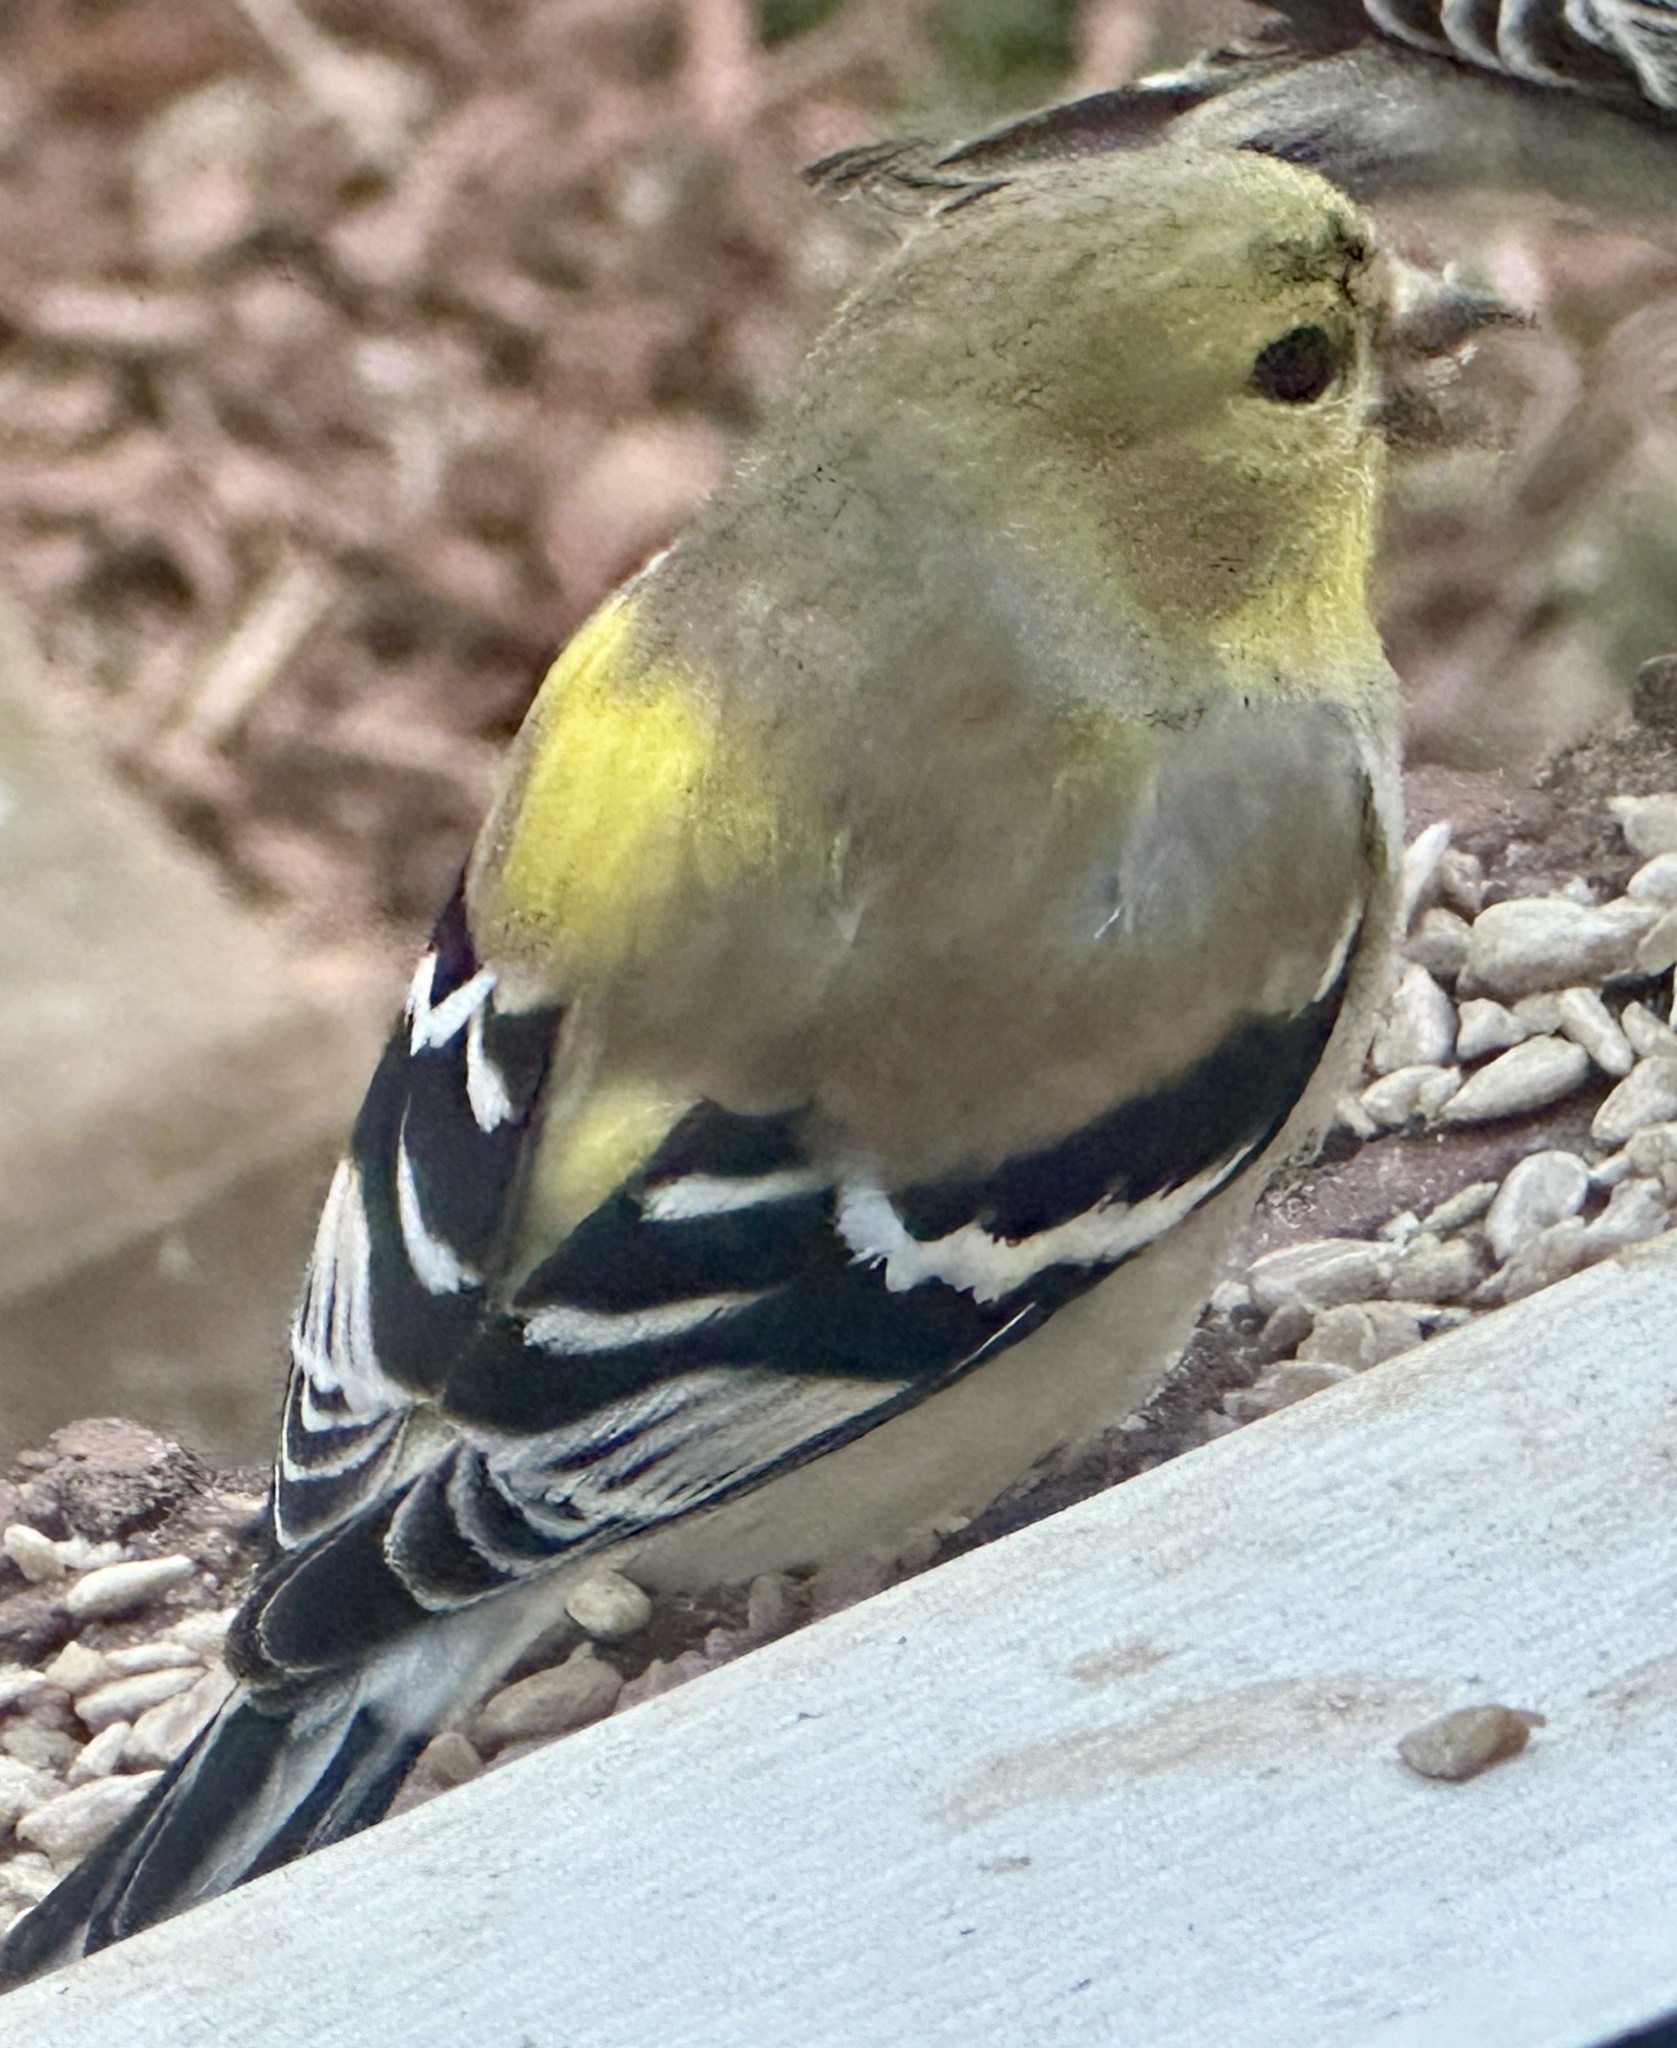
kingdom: Animalia
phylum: Chordata
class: Aves
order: Passeriformes
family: Fringillidae
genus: Spinus
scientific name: Spinus tristis
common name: American goldfinch
